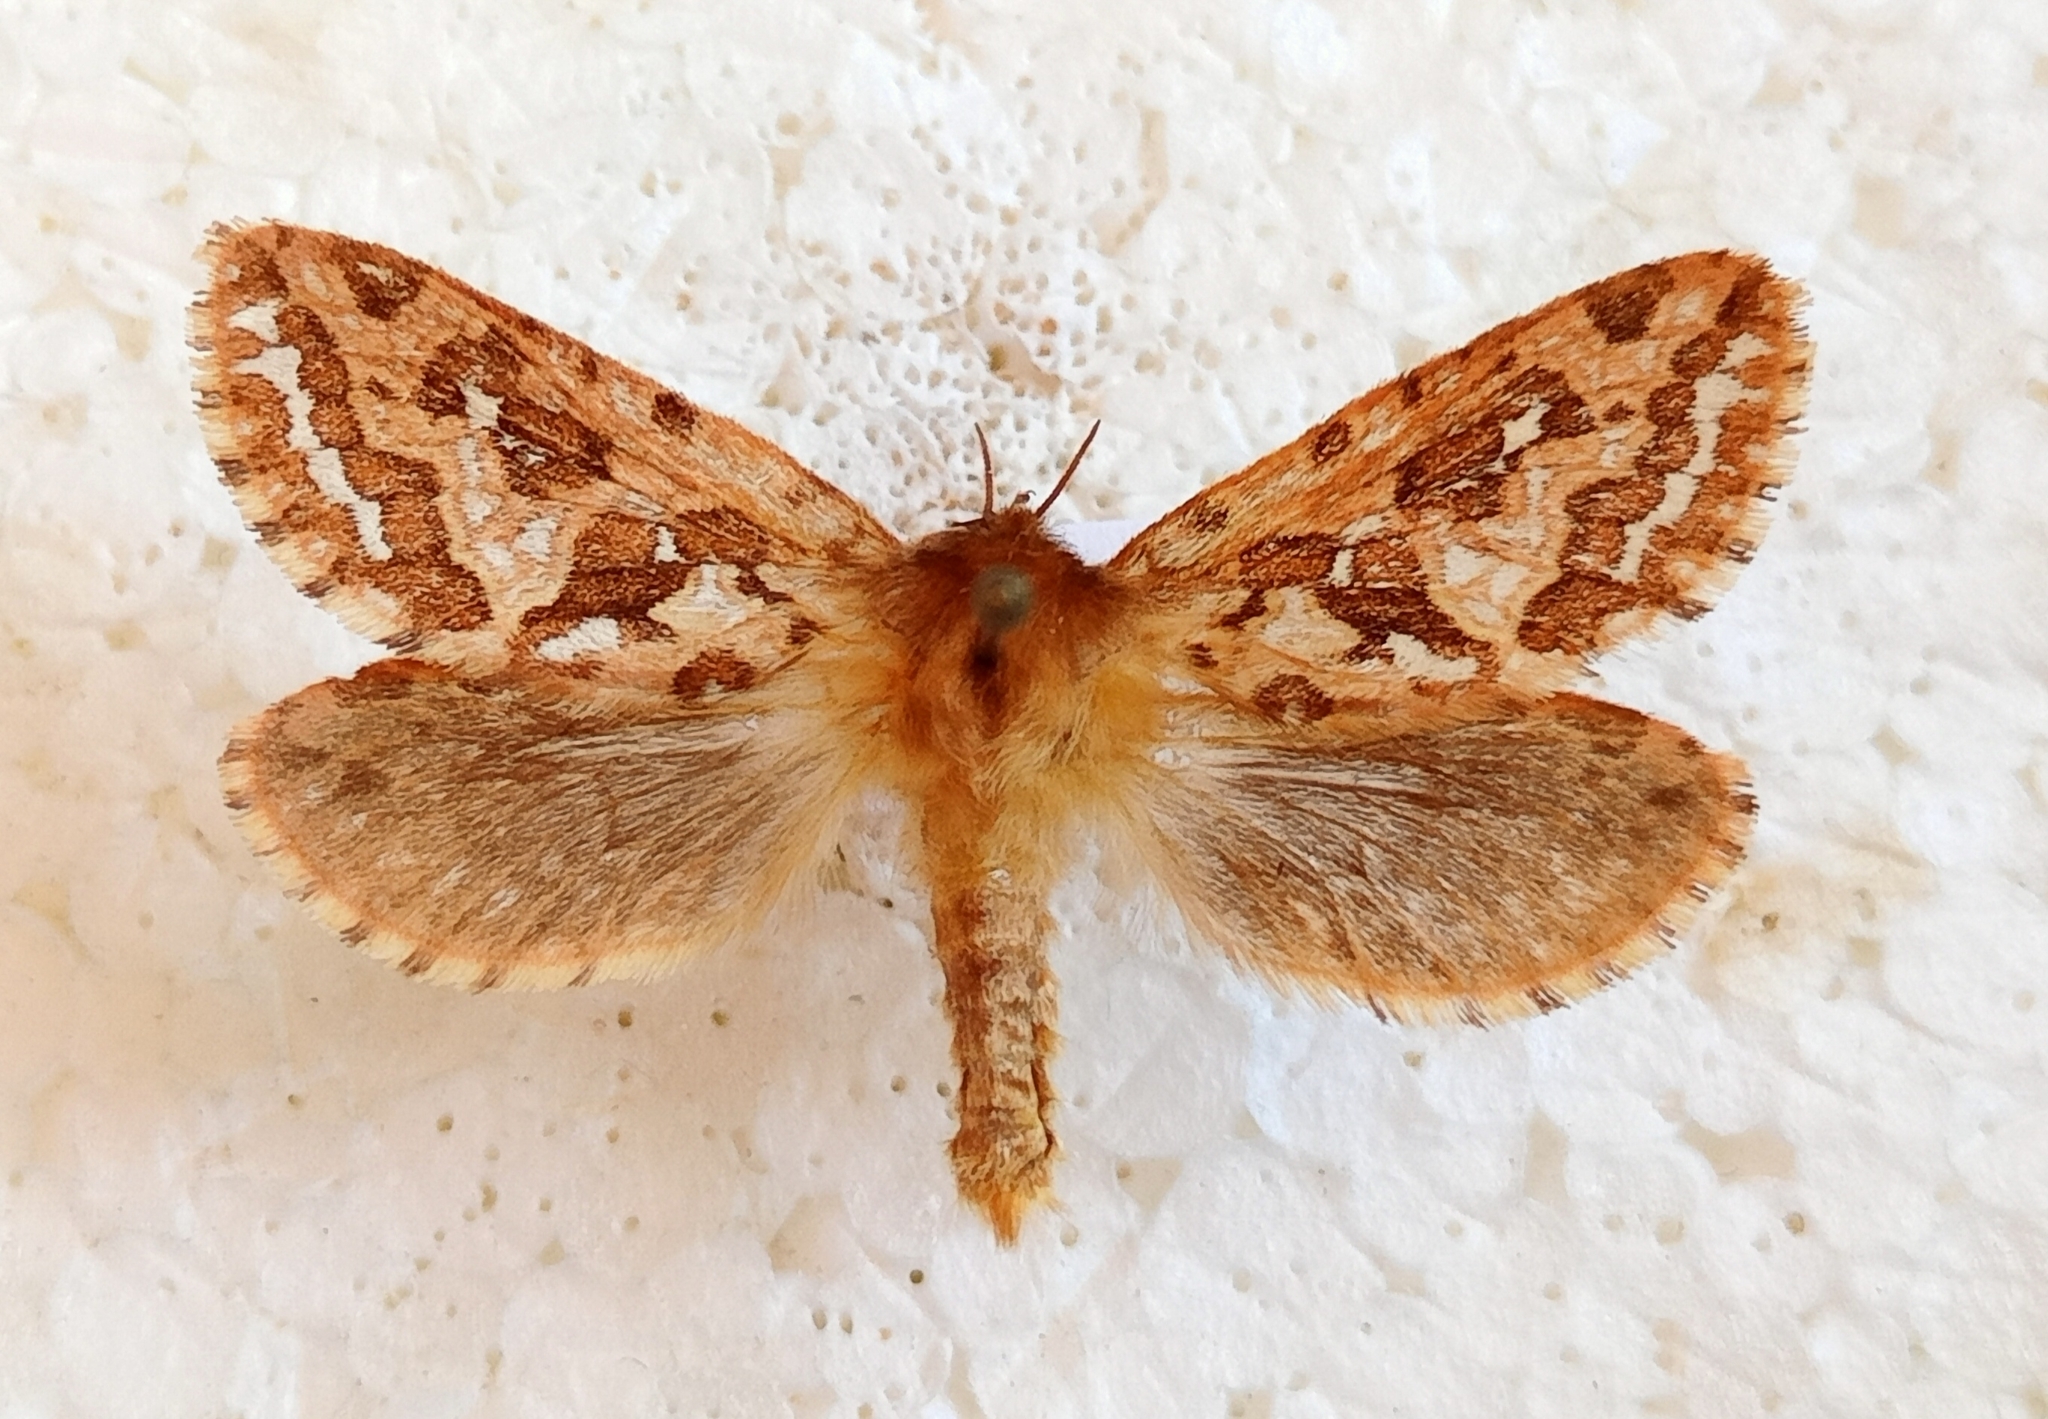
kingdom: Animalia
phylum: Arthropoda
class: Insecta
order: Lepidoptera
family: Hepialidae
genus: Korscheltellus
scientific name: Korscheltellus fusconebulosus
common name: Map-winged swift
